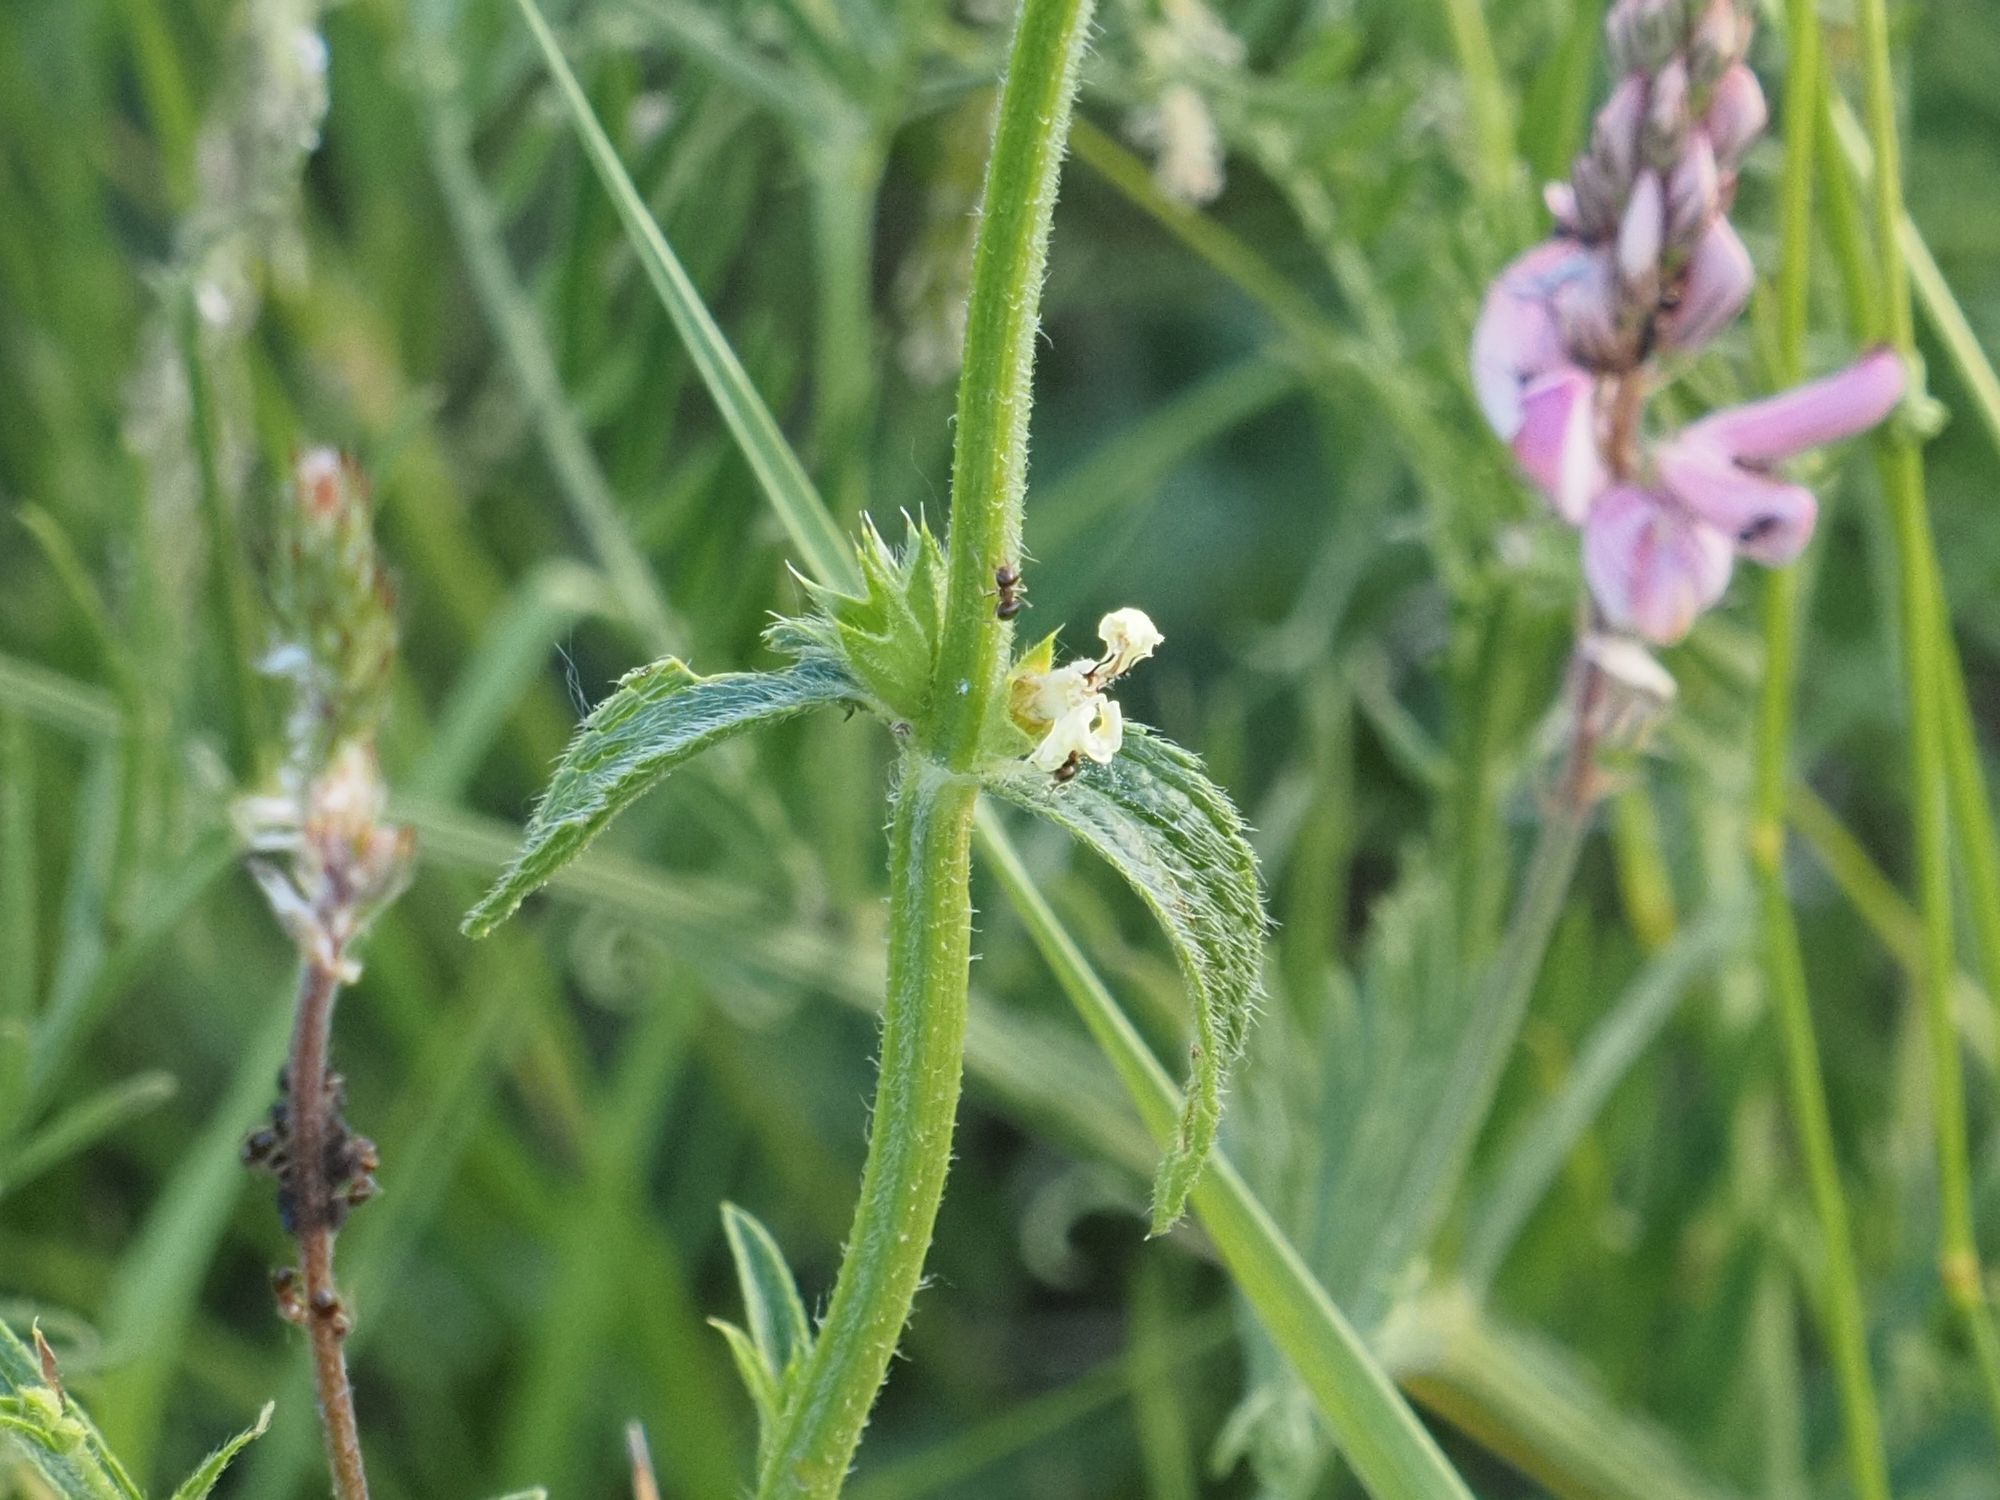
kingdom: Plantae
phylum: Tracheophyta
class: Magnoliopsida
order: Lamiales
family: Lamiaceae
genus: Stachys
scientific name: Stachys recta
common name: Perennial yellow-woundwort
